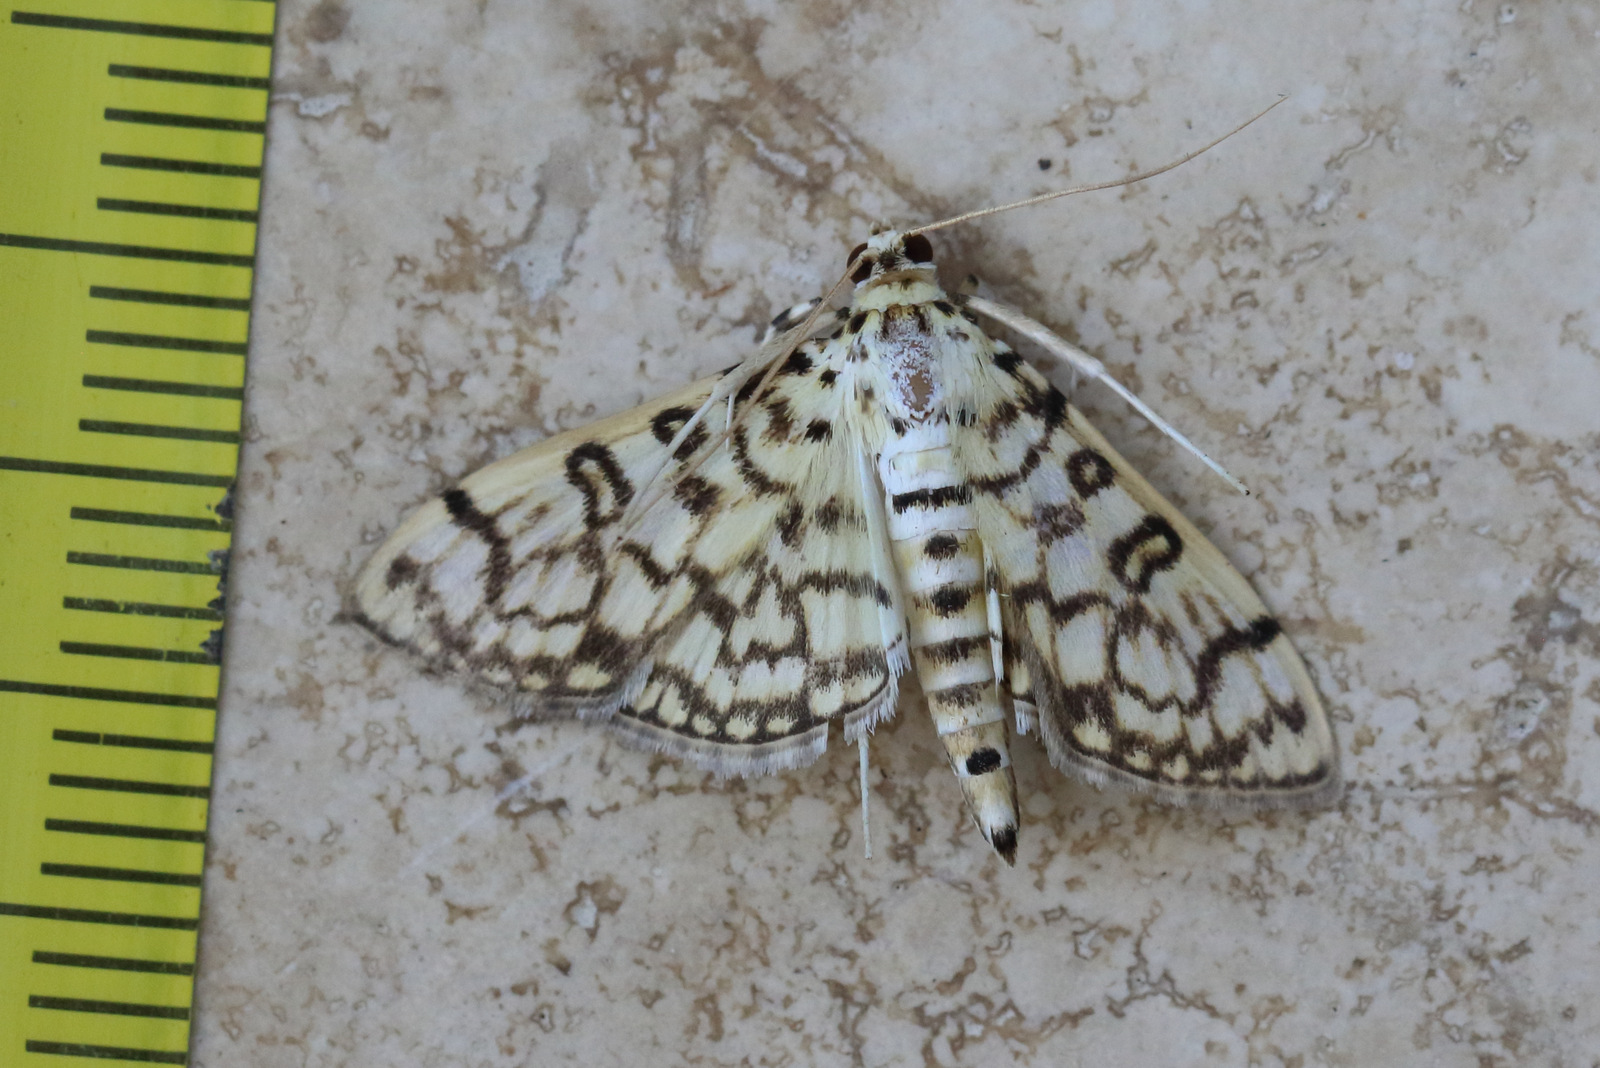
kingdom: Animalia
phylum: Arthropoda
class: Insecta
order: Lepidoptera
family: Crambidae
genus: Haritalodes
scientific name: Haritalodes derogata
